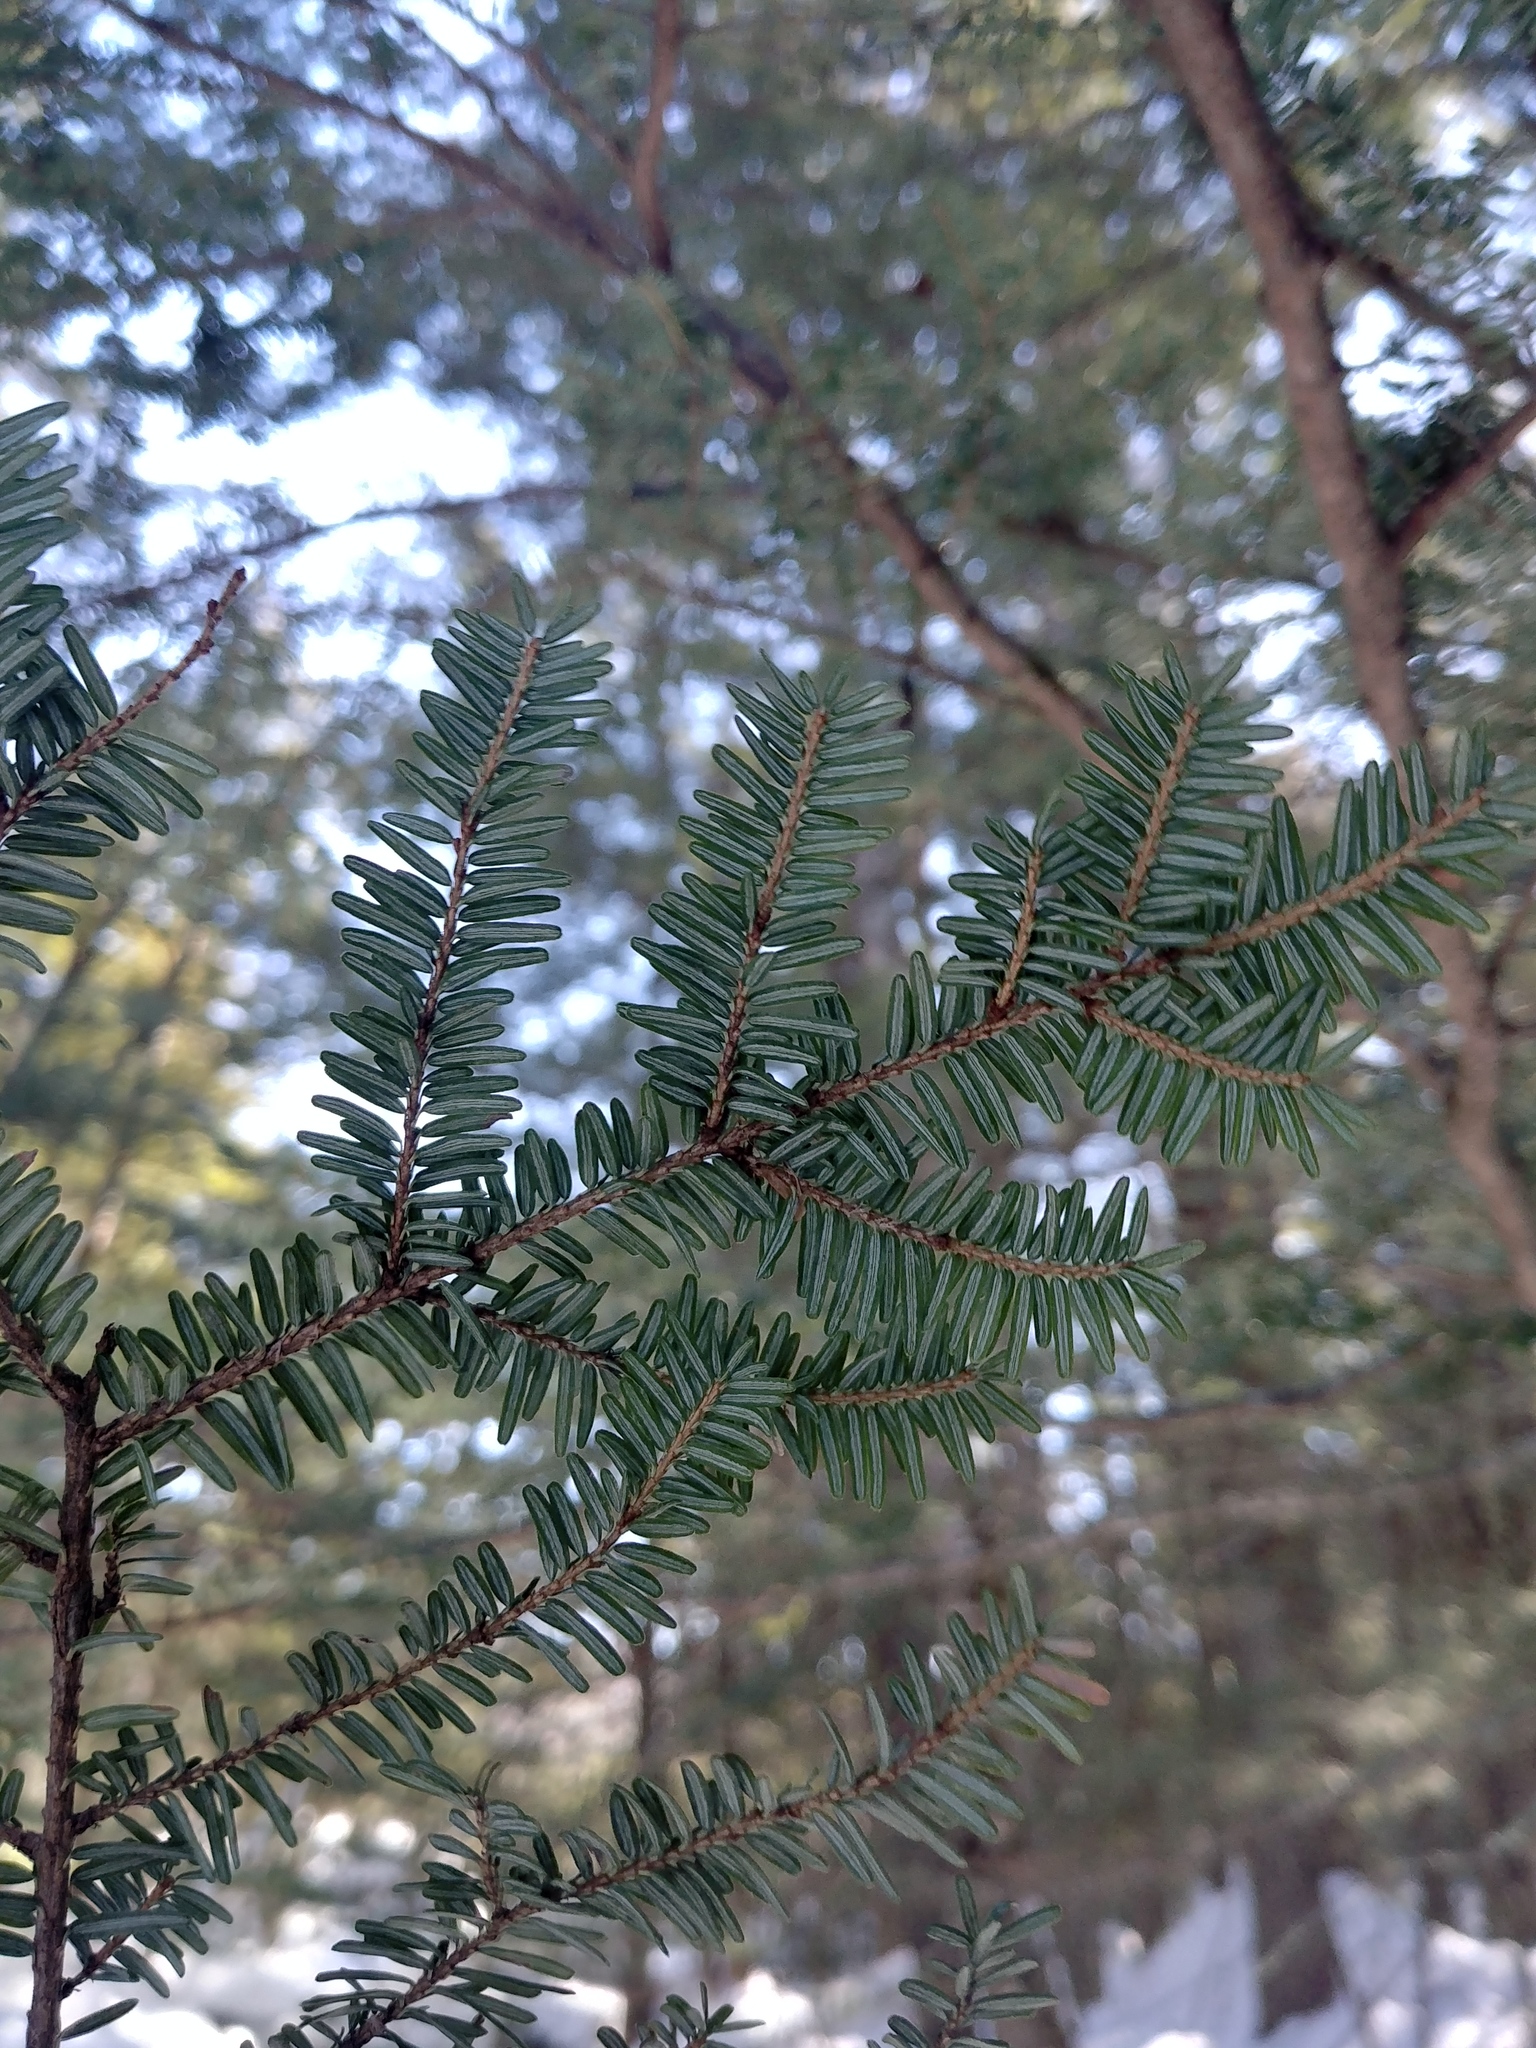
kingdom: Plantae
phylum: Tracheophyta
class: Pinopsida
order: Pinales
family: Pinaceae
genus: Tsuga
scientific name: Tsuga canadensis
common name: Eastern hemlock
